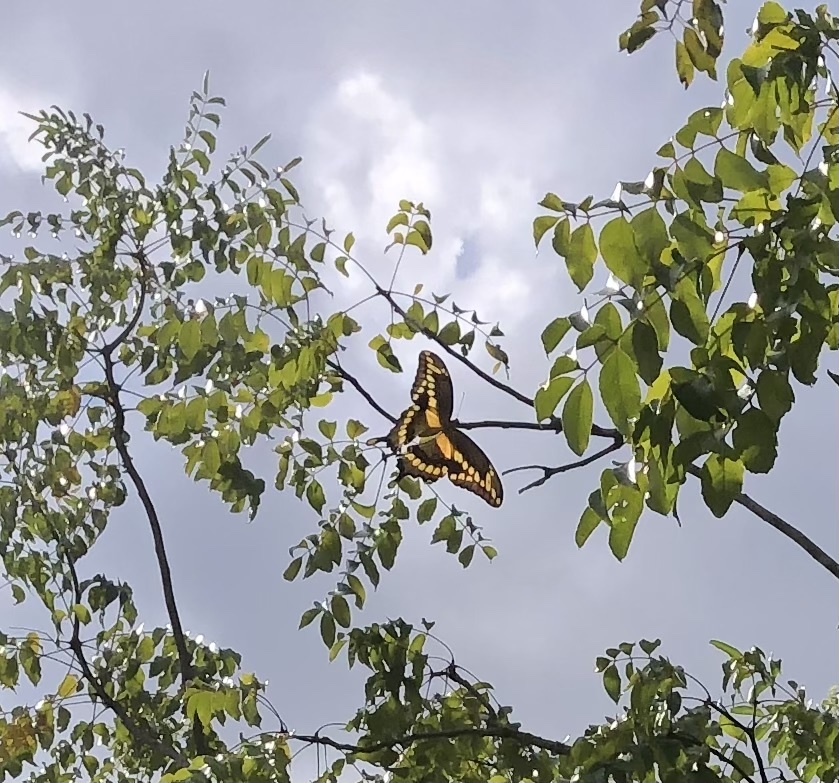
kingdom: Animalia
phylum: Arthropoda
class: Insecta
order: Lepidoptera
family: Papilionidae
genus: Papilio
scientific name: Papilio cresphontes
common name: Giant swallowtail
